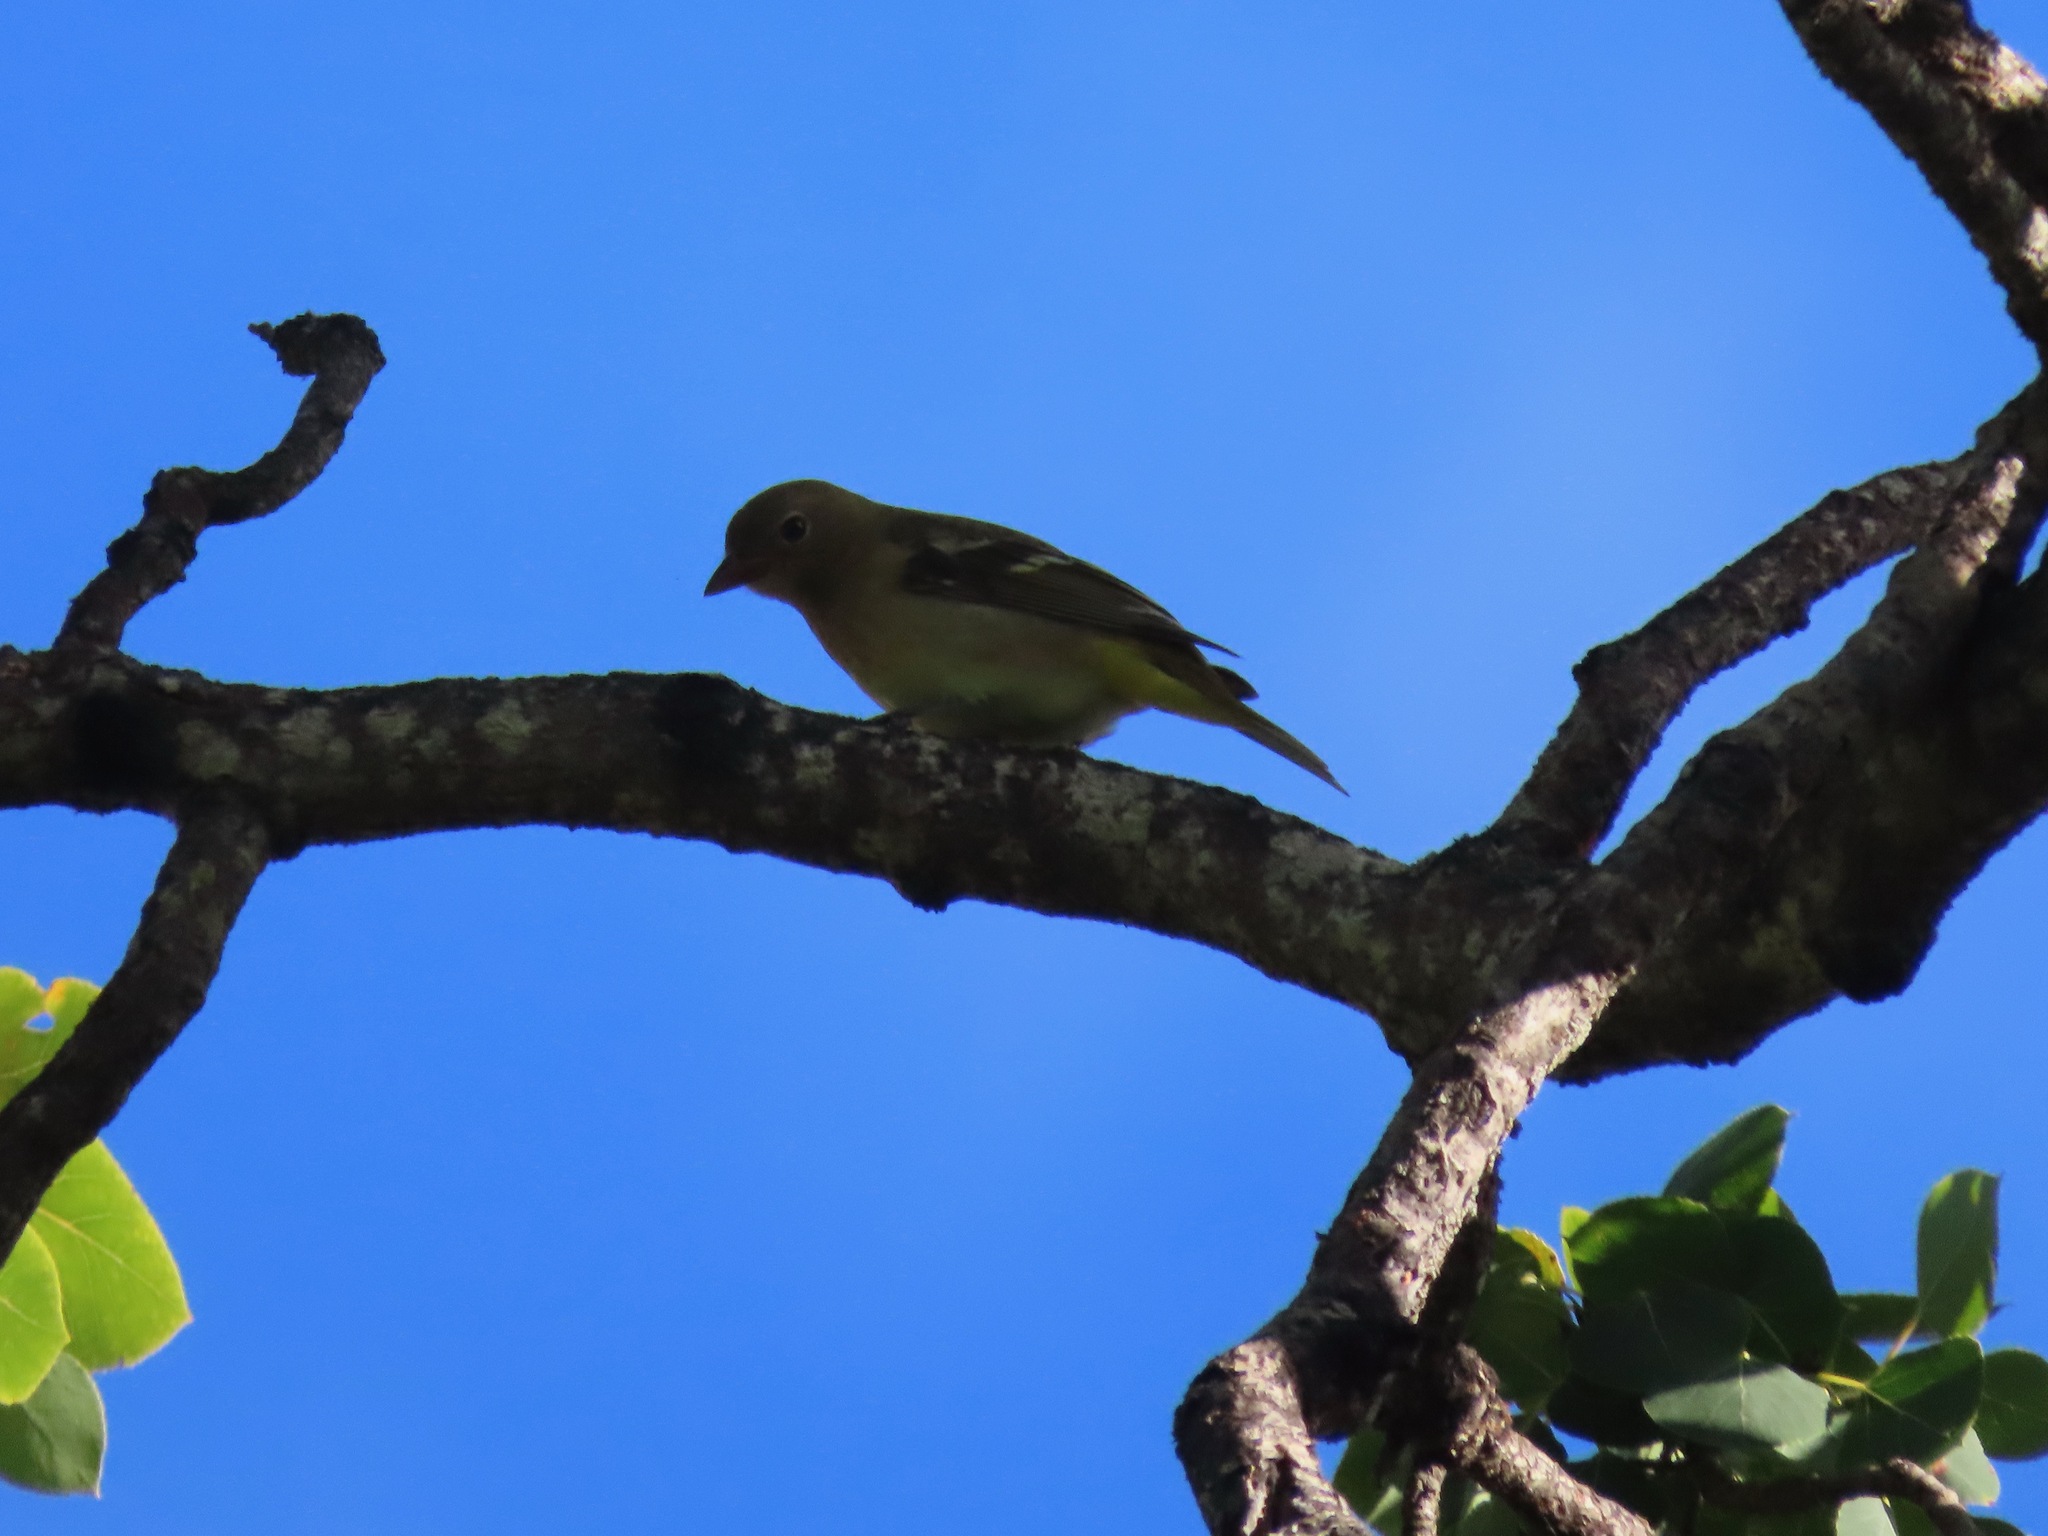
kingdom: Animalia
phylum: Chordata
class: Aves
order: Passeriformes
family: Cardinalidae
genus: Piranga
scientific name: Piranga ludoviciana
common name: Western tanager
